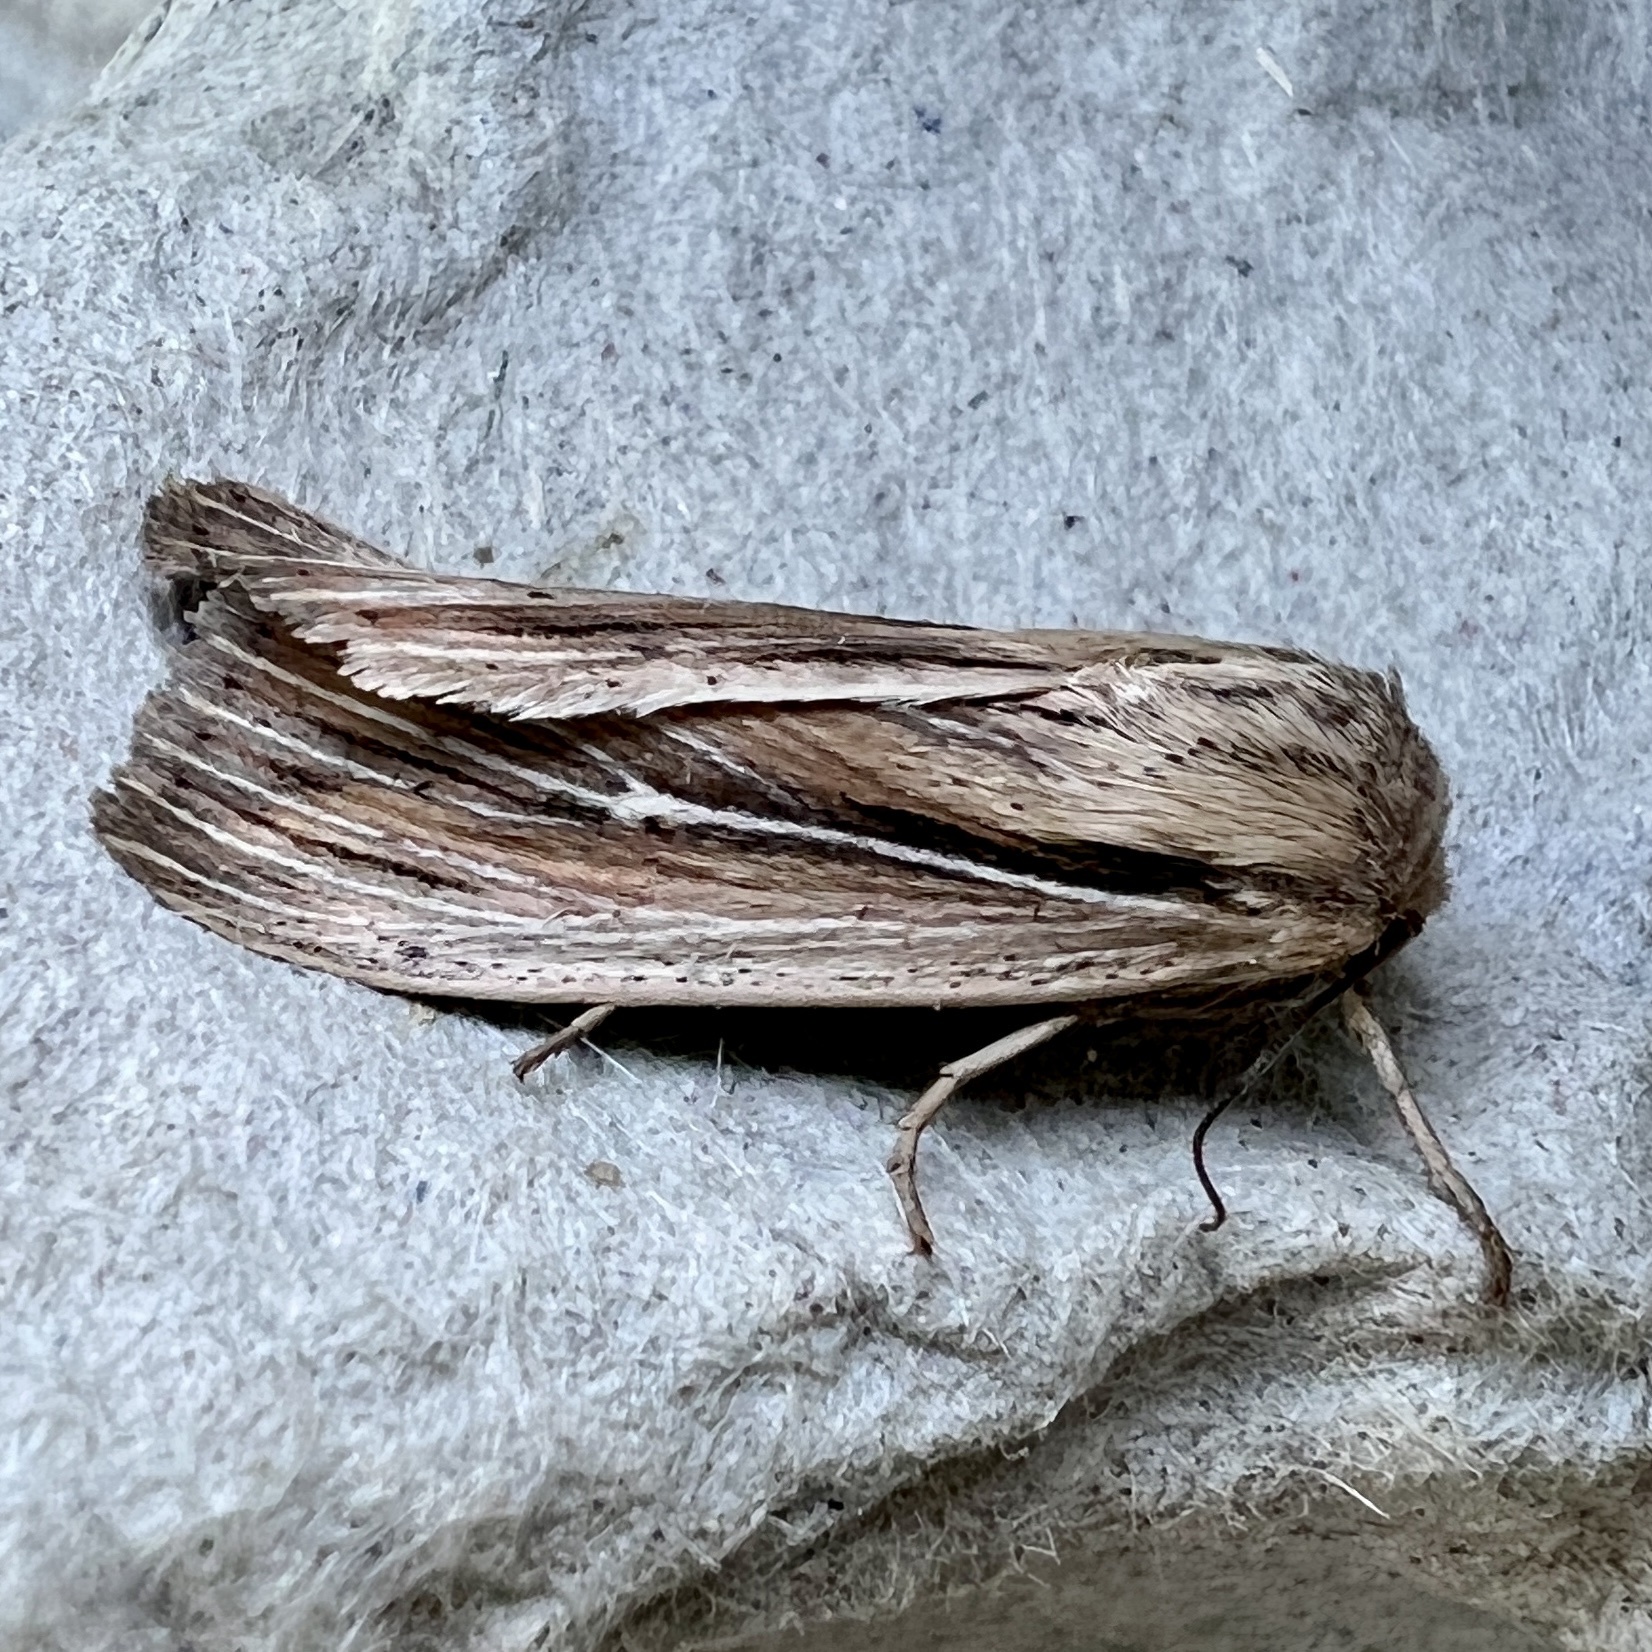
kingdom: Animalia
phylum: Arthropoda
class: Insecta
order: Lepidoptera
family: Noctuidae
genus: Leucania
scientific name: Leucania commoides
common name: Two-lined wainscot
